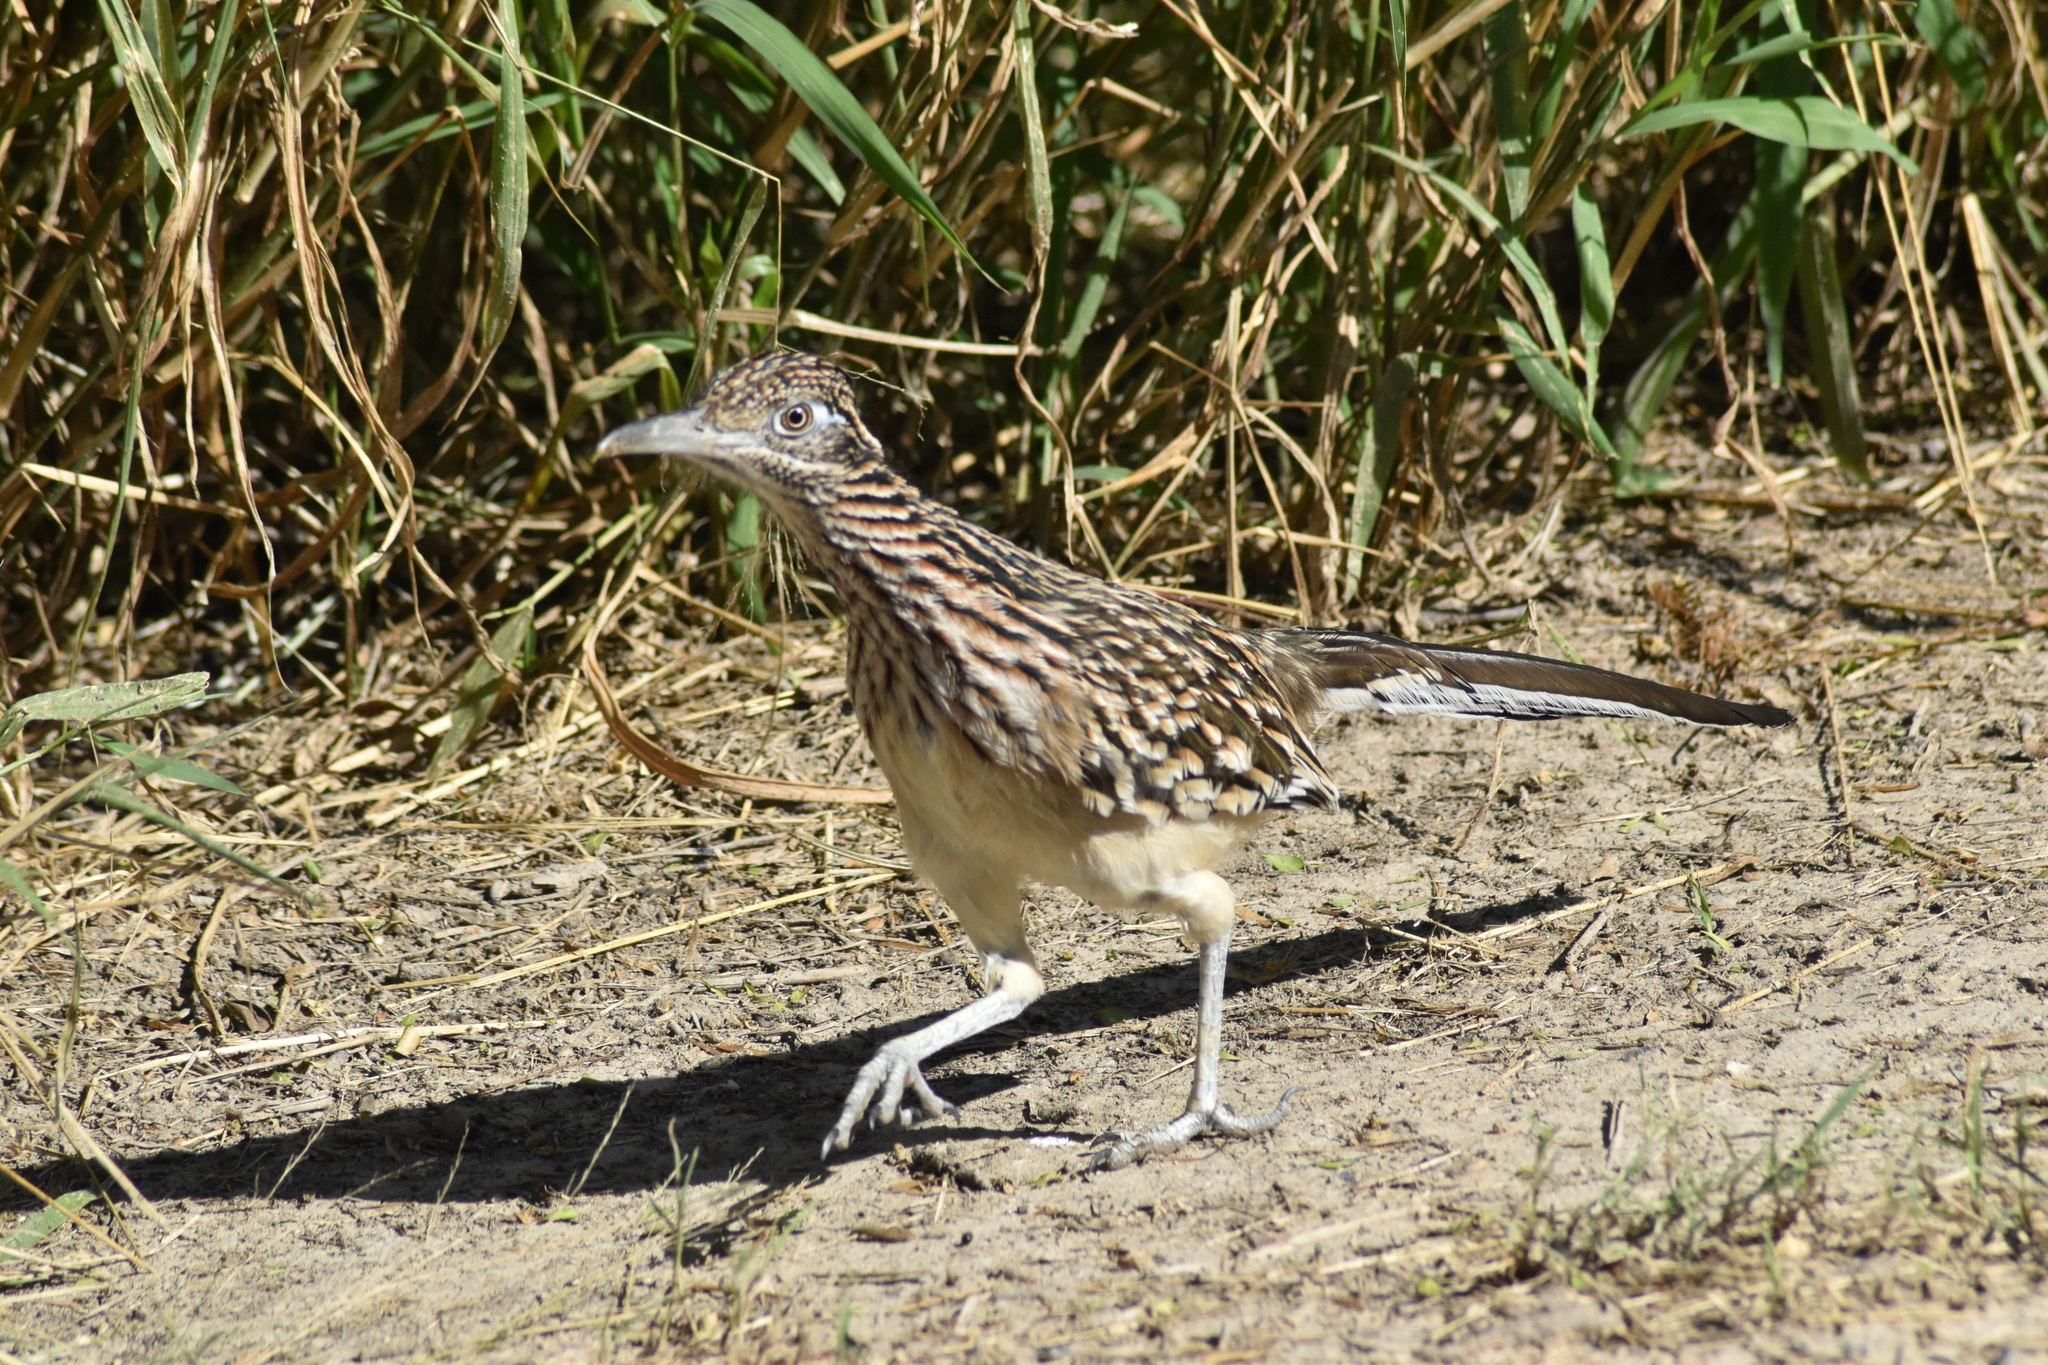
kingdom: Animalia
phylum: Chordata
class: Aves
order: Cuculiformes
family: Cuculidae
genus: Geococcyx
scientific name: Geococcyx californianus
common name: Greater roadrunner
